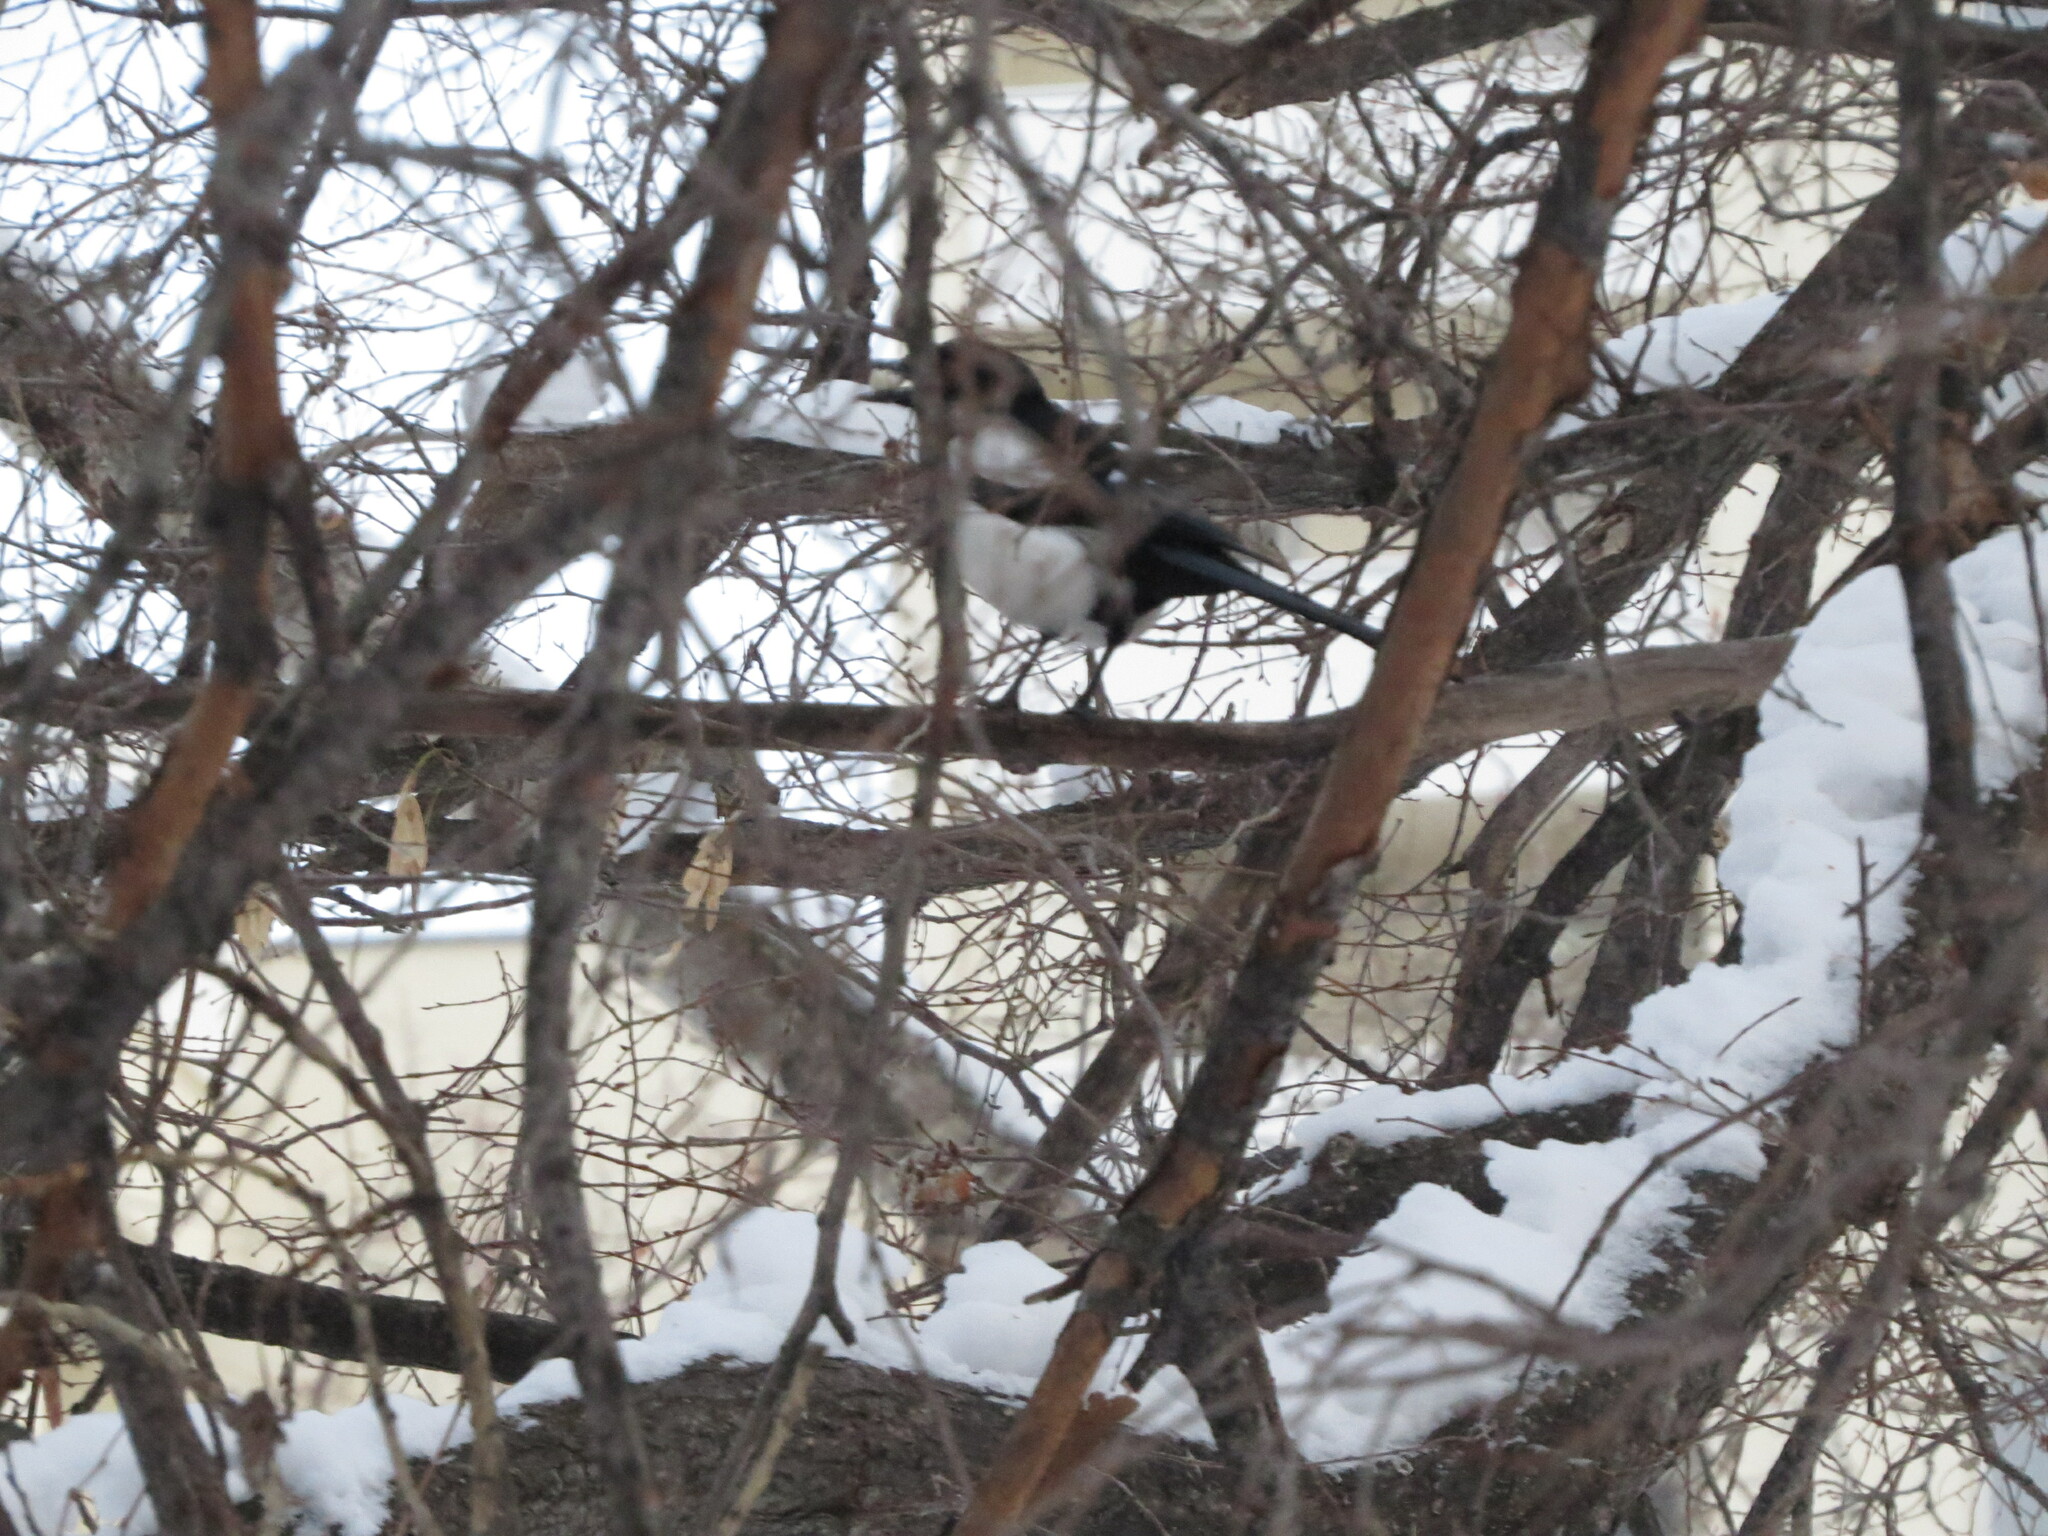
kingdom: Animalia
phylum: Chordata
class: Aves
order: Passeriformes
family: Corvidae
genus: Pica
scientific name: Pica pica
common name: Eurasian magpie
